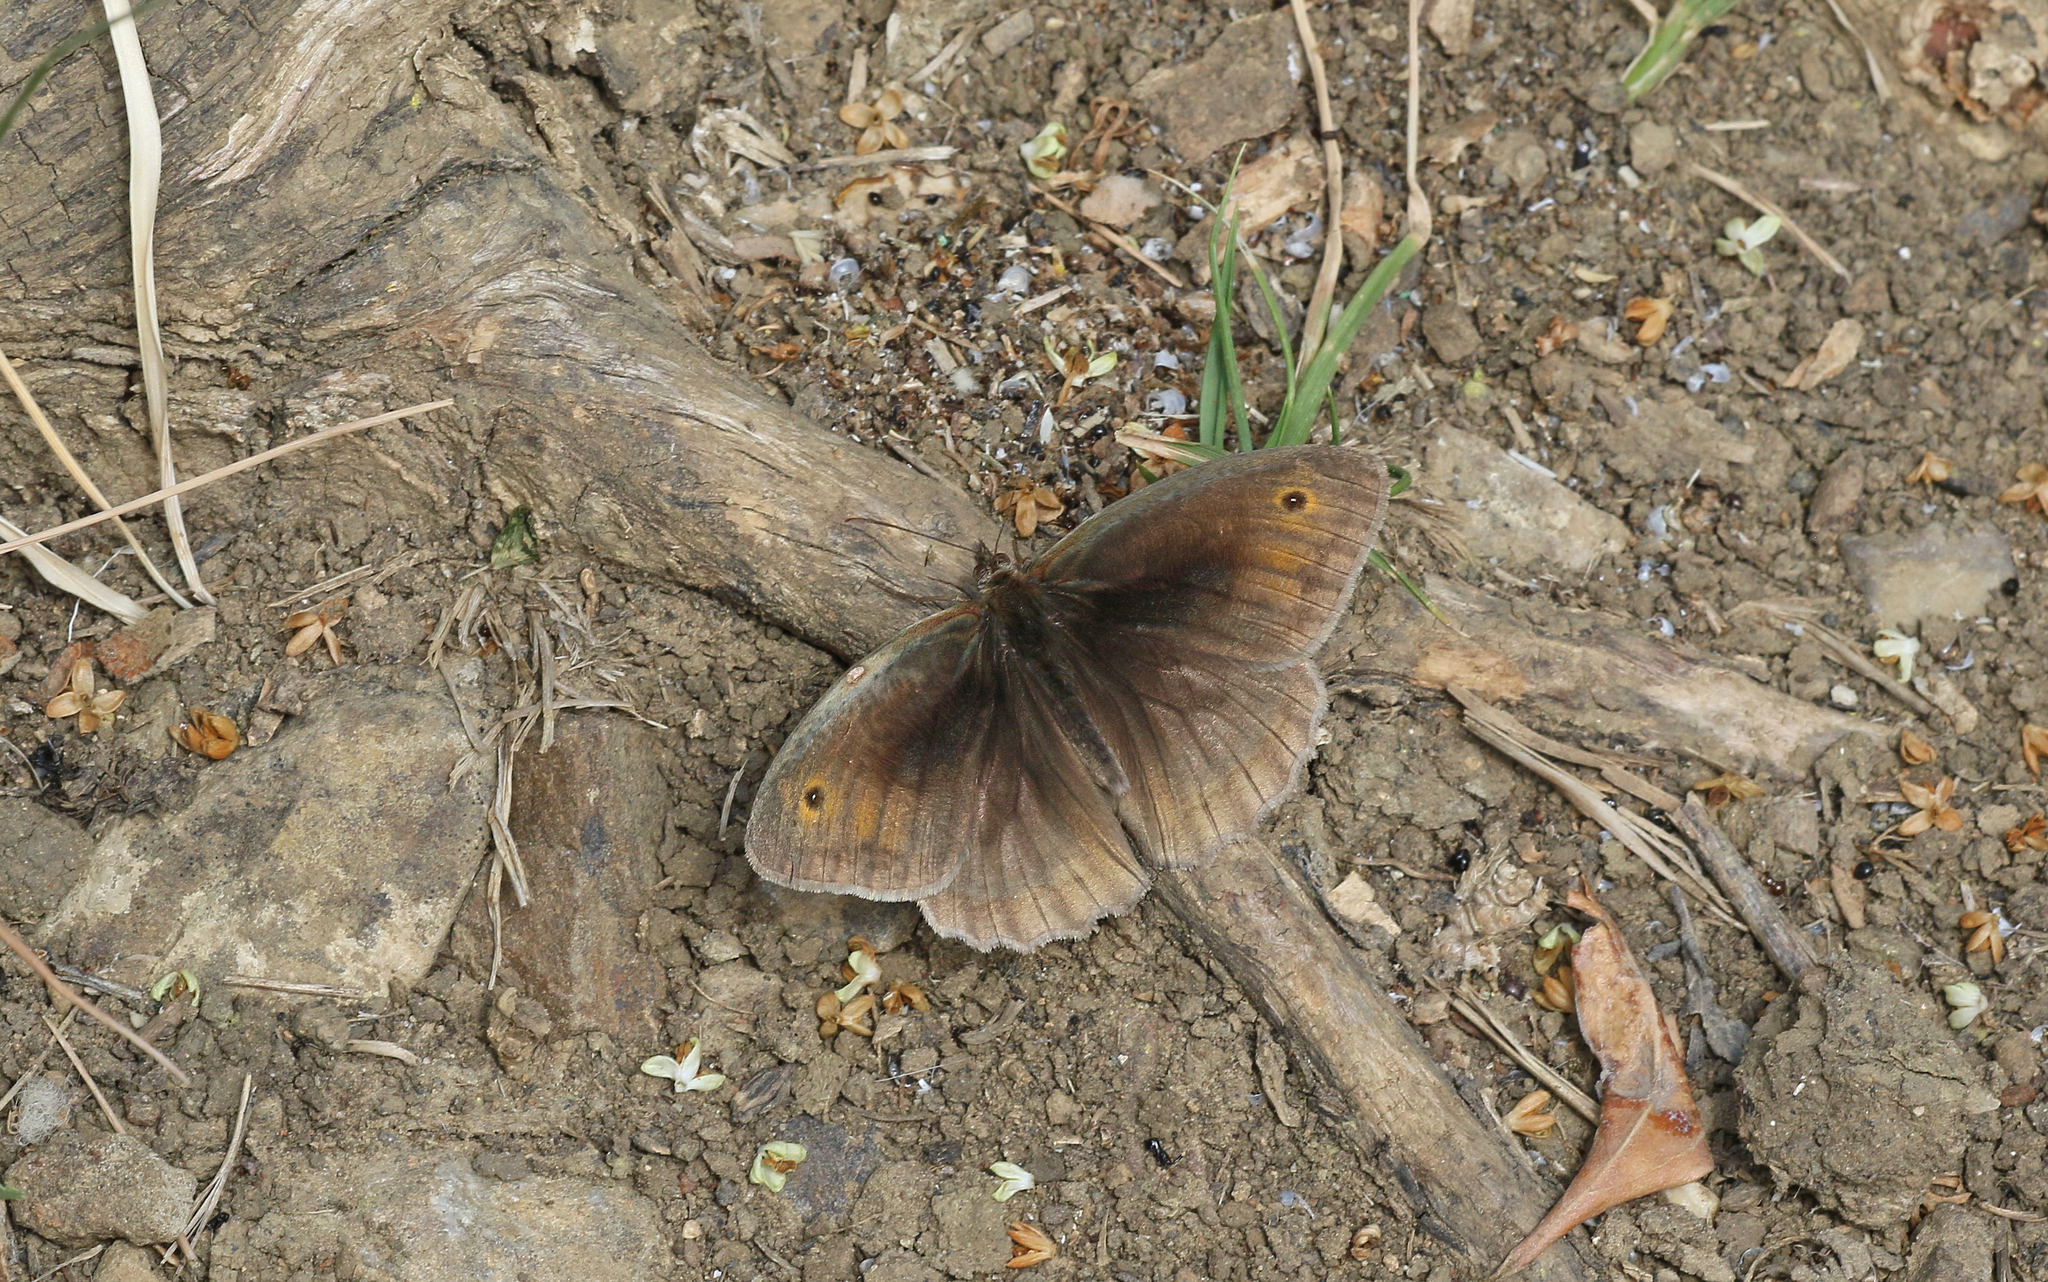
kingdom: Animalia
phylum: Arthropoda
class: Insecta
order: Lepidoptera
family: Nymphalidae
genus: Maniola
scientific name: Maniola jurtina
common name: Meadow brown
